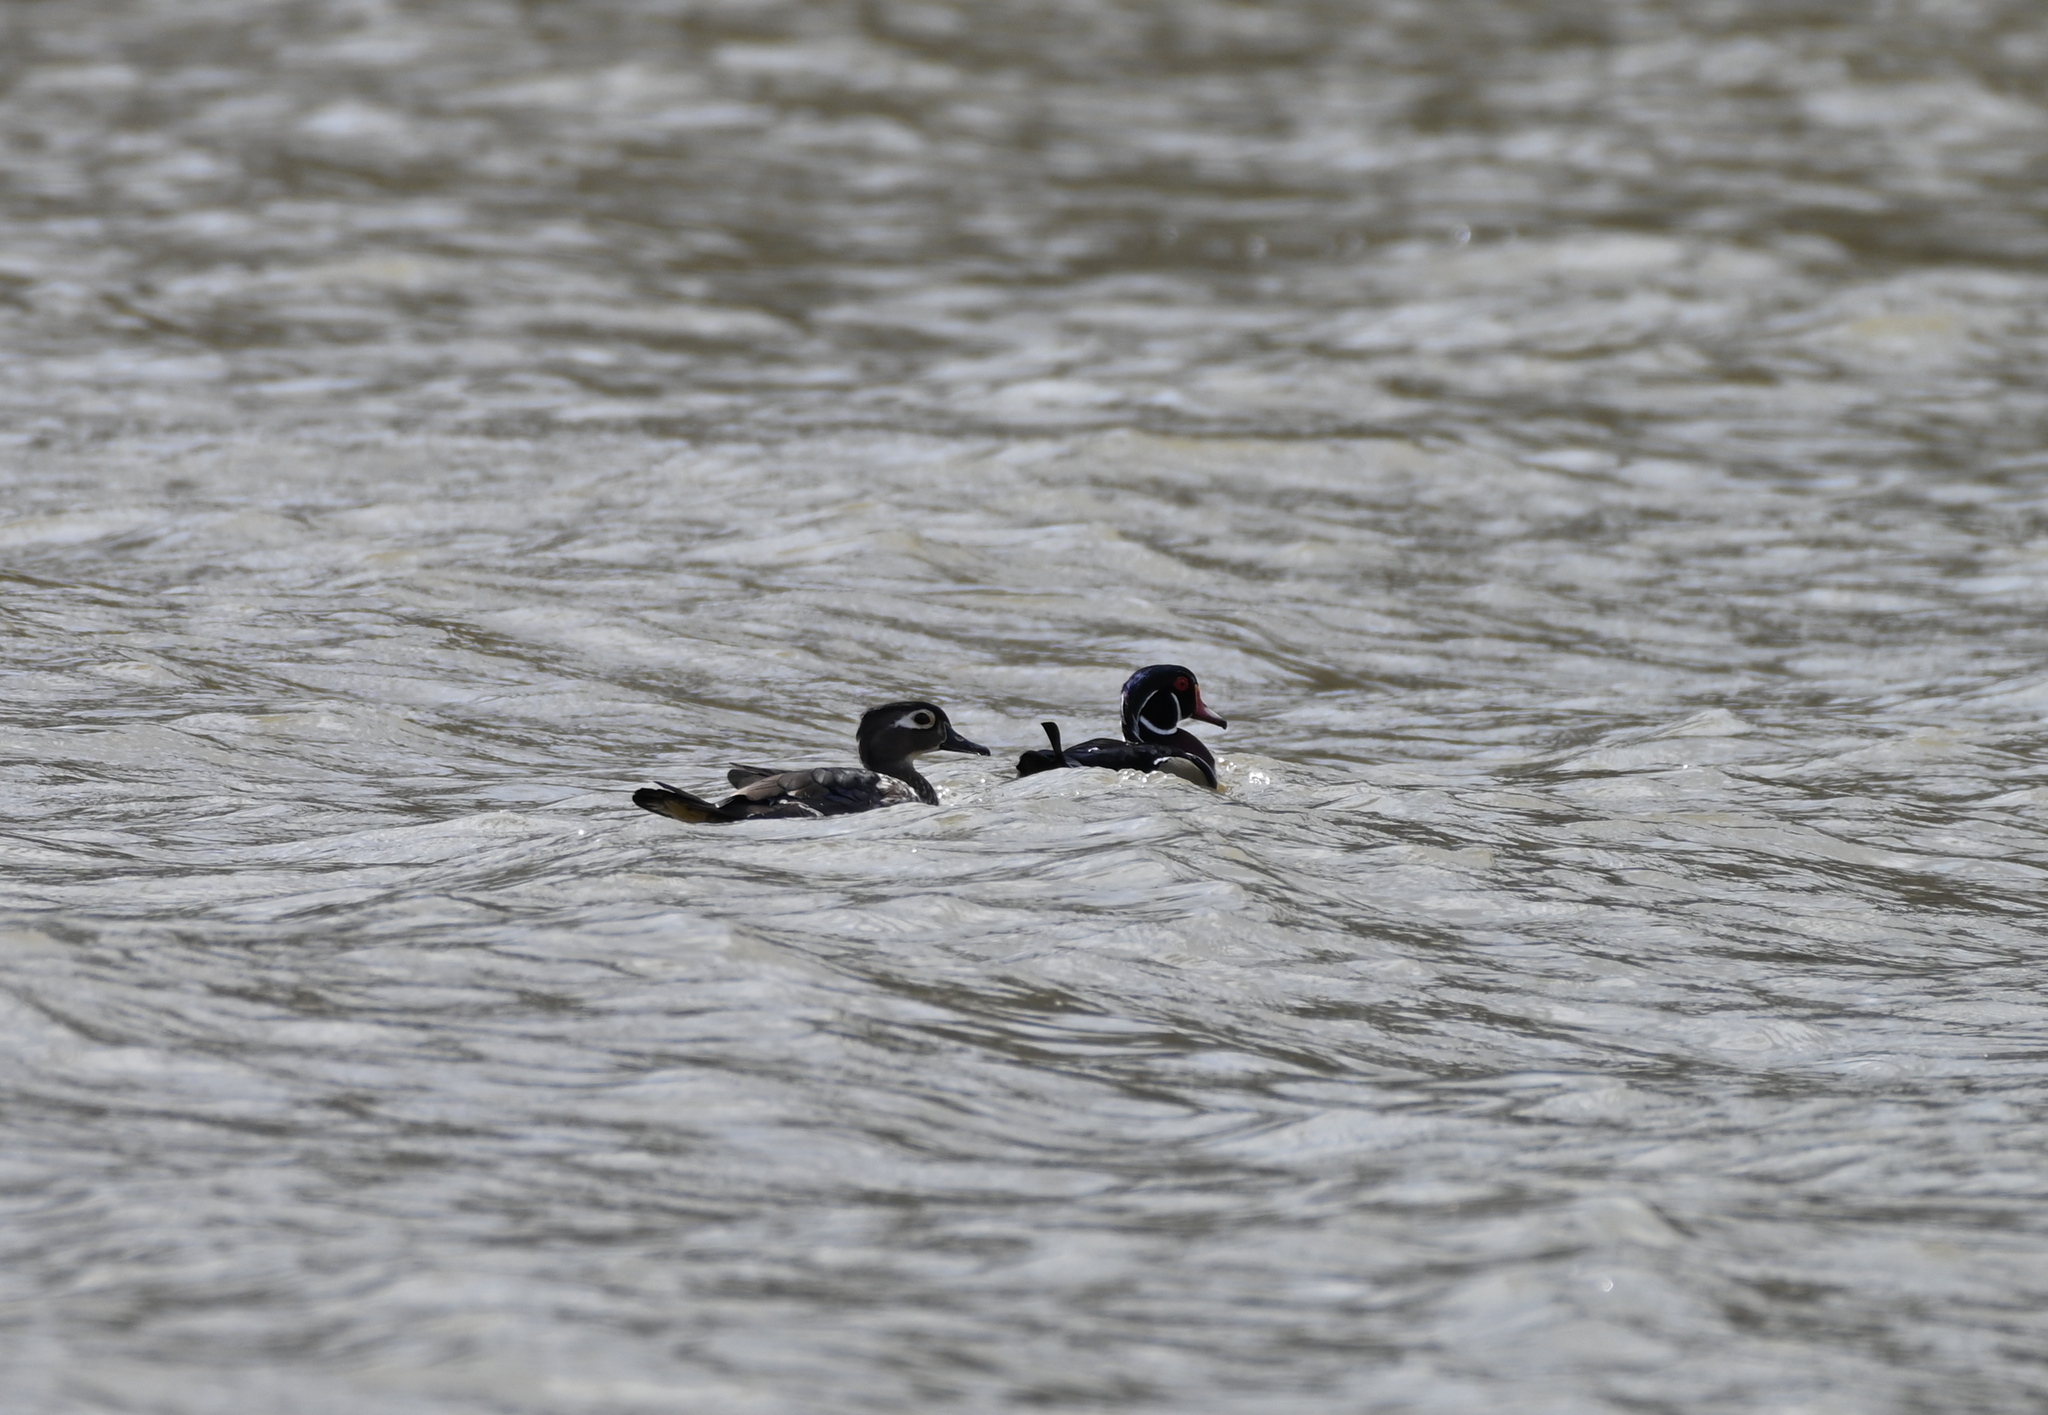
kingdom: Animalia
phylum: Chordata
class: Aves
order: Anseriformes
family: Anatidae
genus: Aix
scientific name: Aix sponsa
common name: Wood duck
